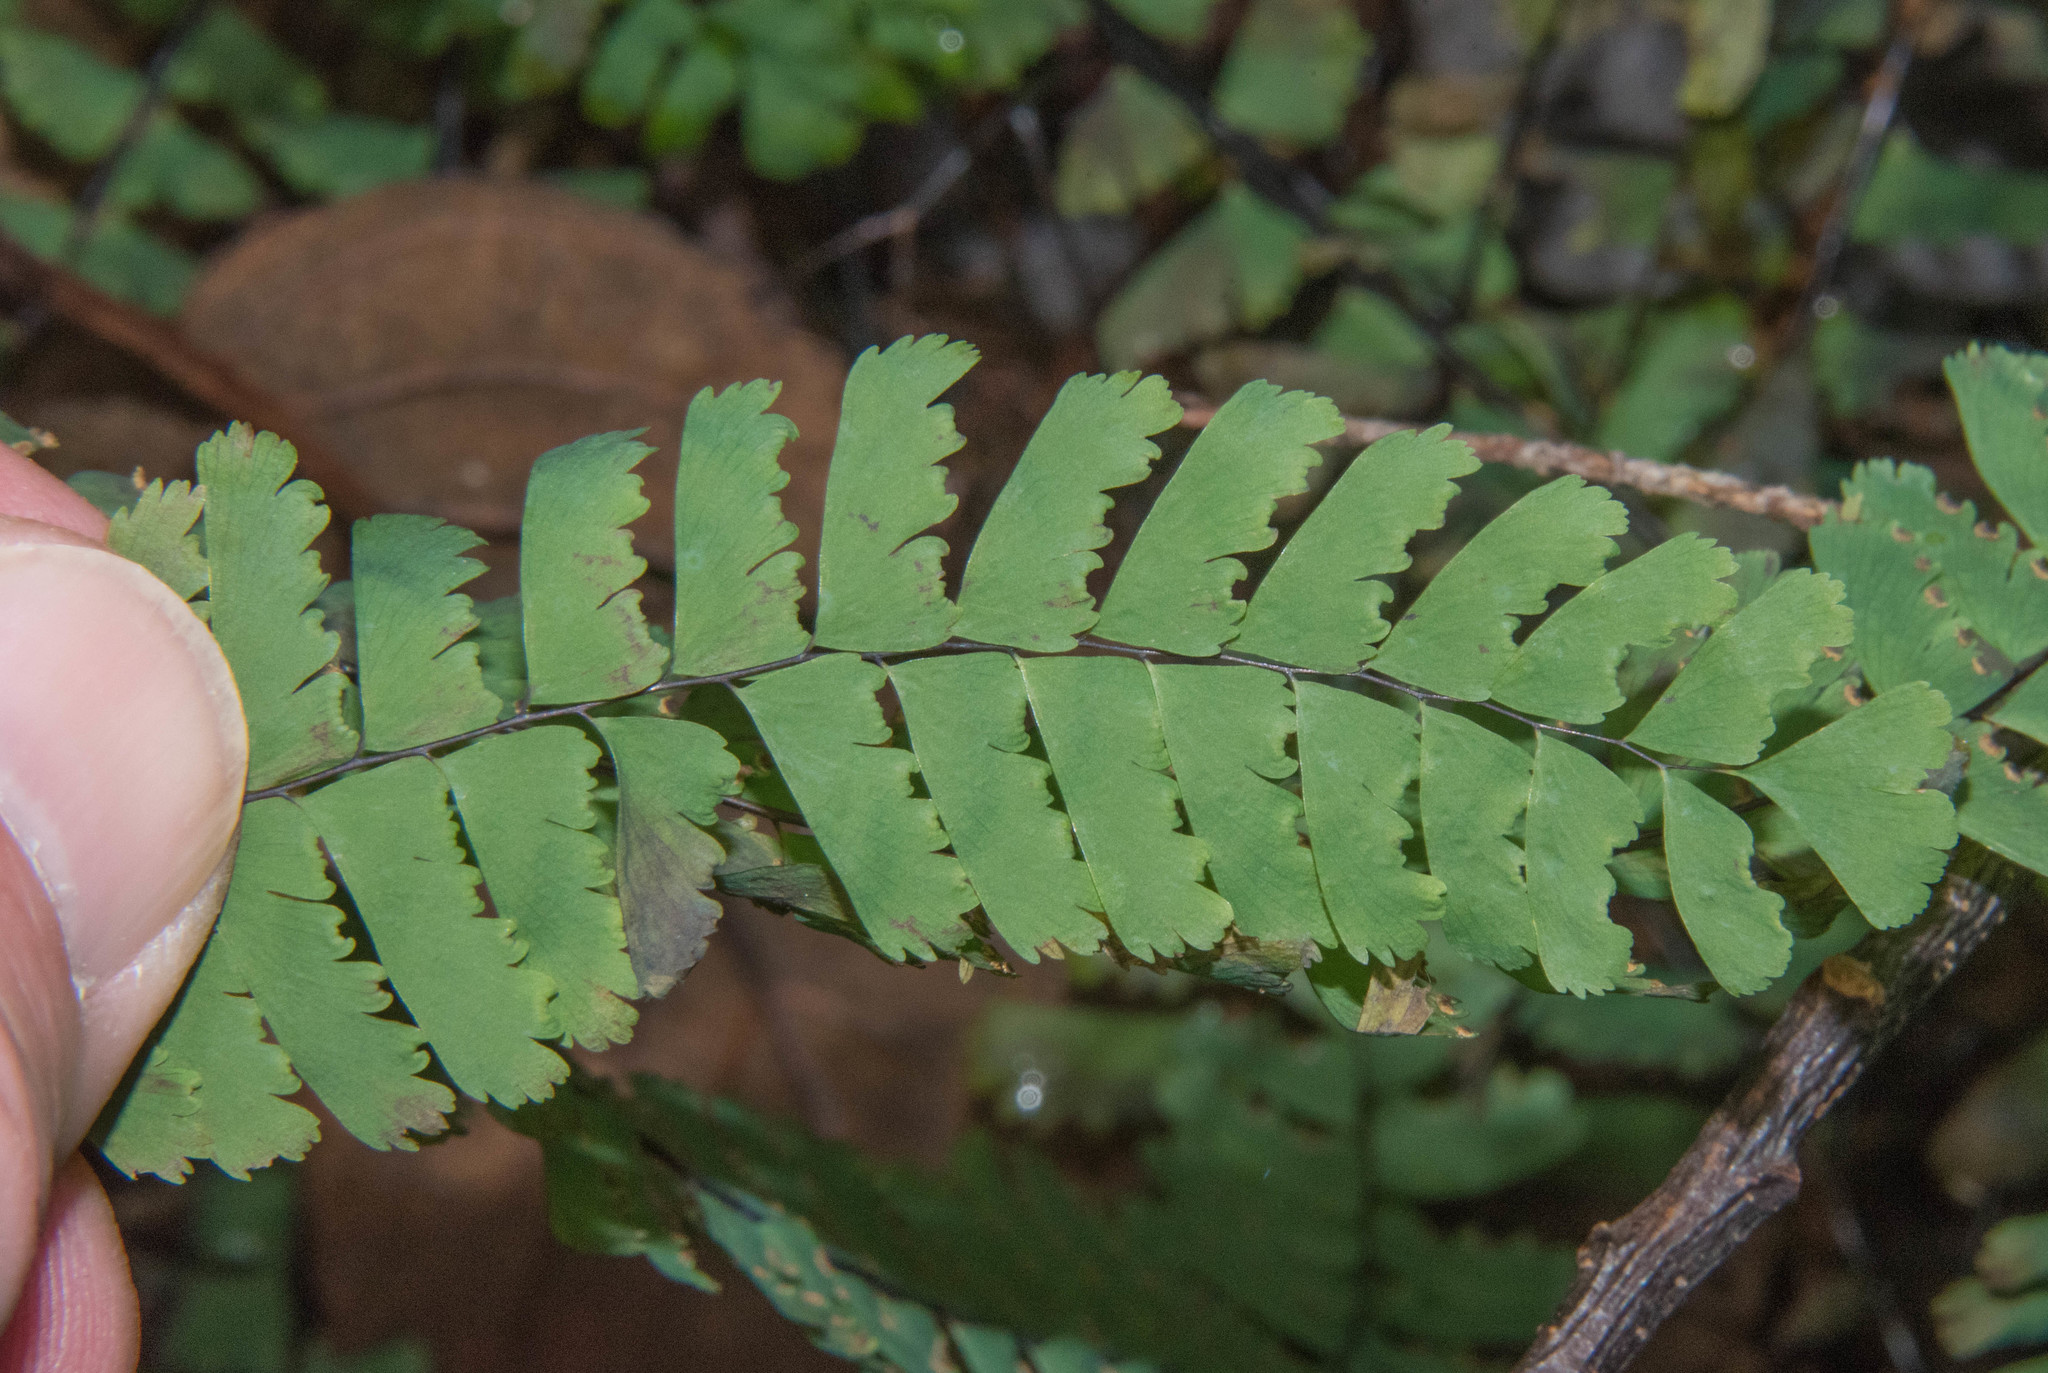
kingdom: Plantae
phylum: Tracheophyta
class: Polypodiopsida
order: Polypodiales
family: Pteridaceae
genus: Adiantum
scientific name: Adiantum aleuticum
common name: Aleutian maidenhair fern
